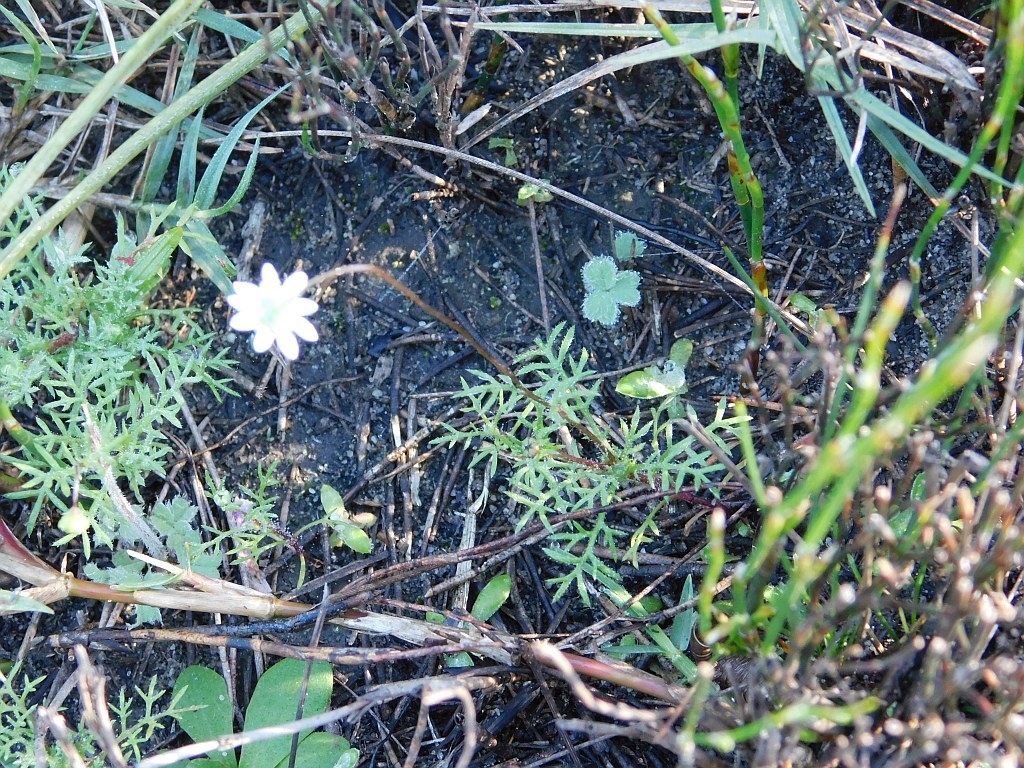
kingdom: Plantae
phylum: Tracheophyta
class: Magnoliopsida
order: Asterales
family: Asteraceae
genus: Cotula
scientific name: Cotula turbinata
